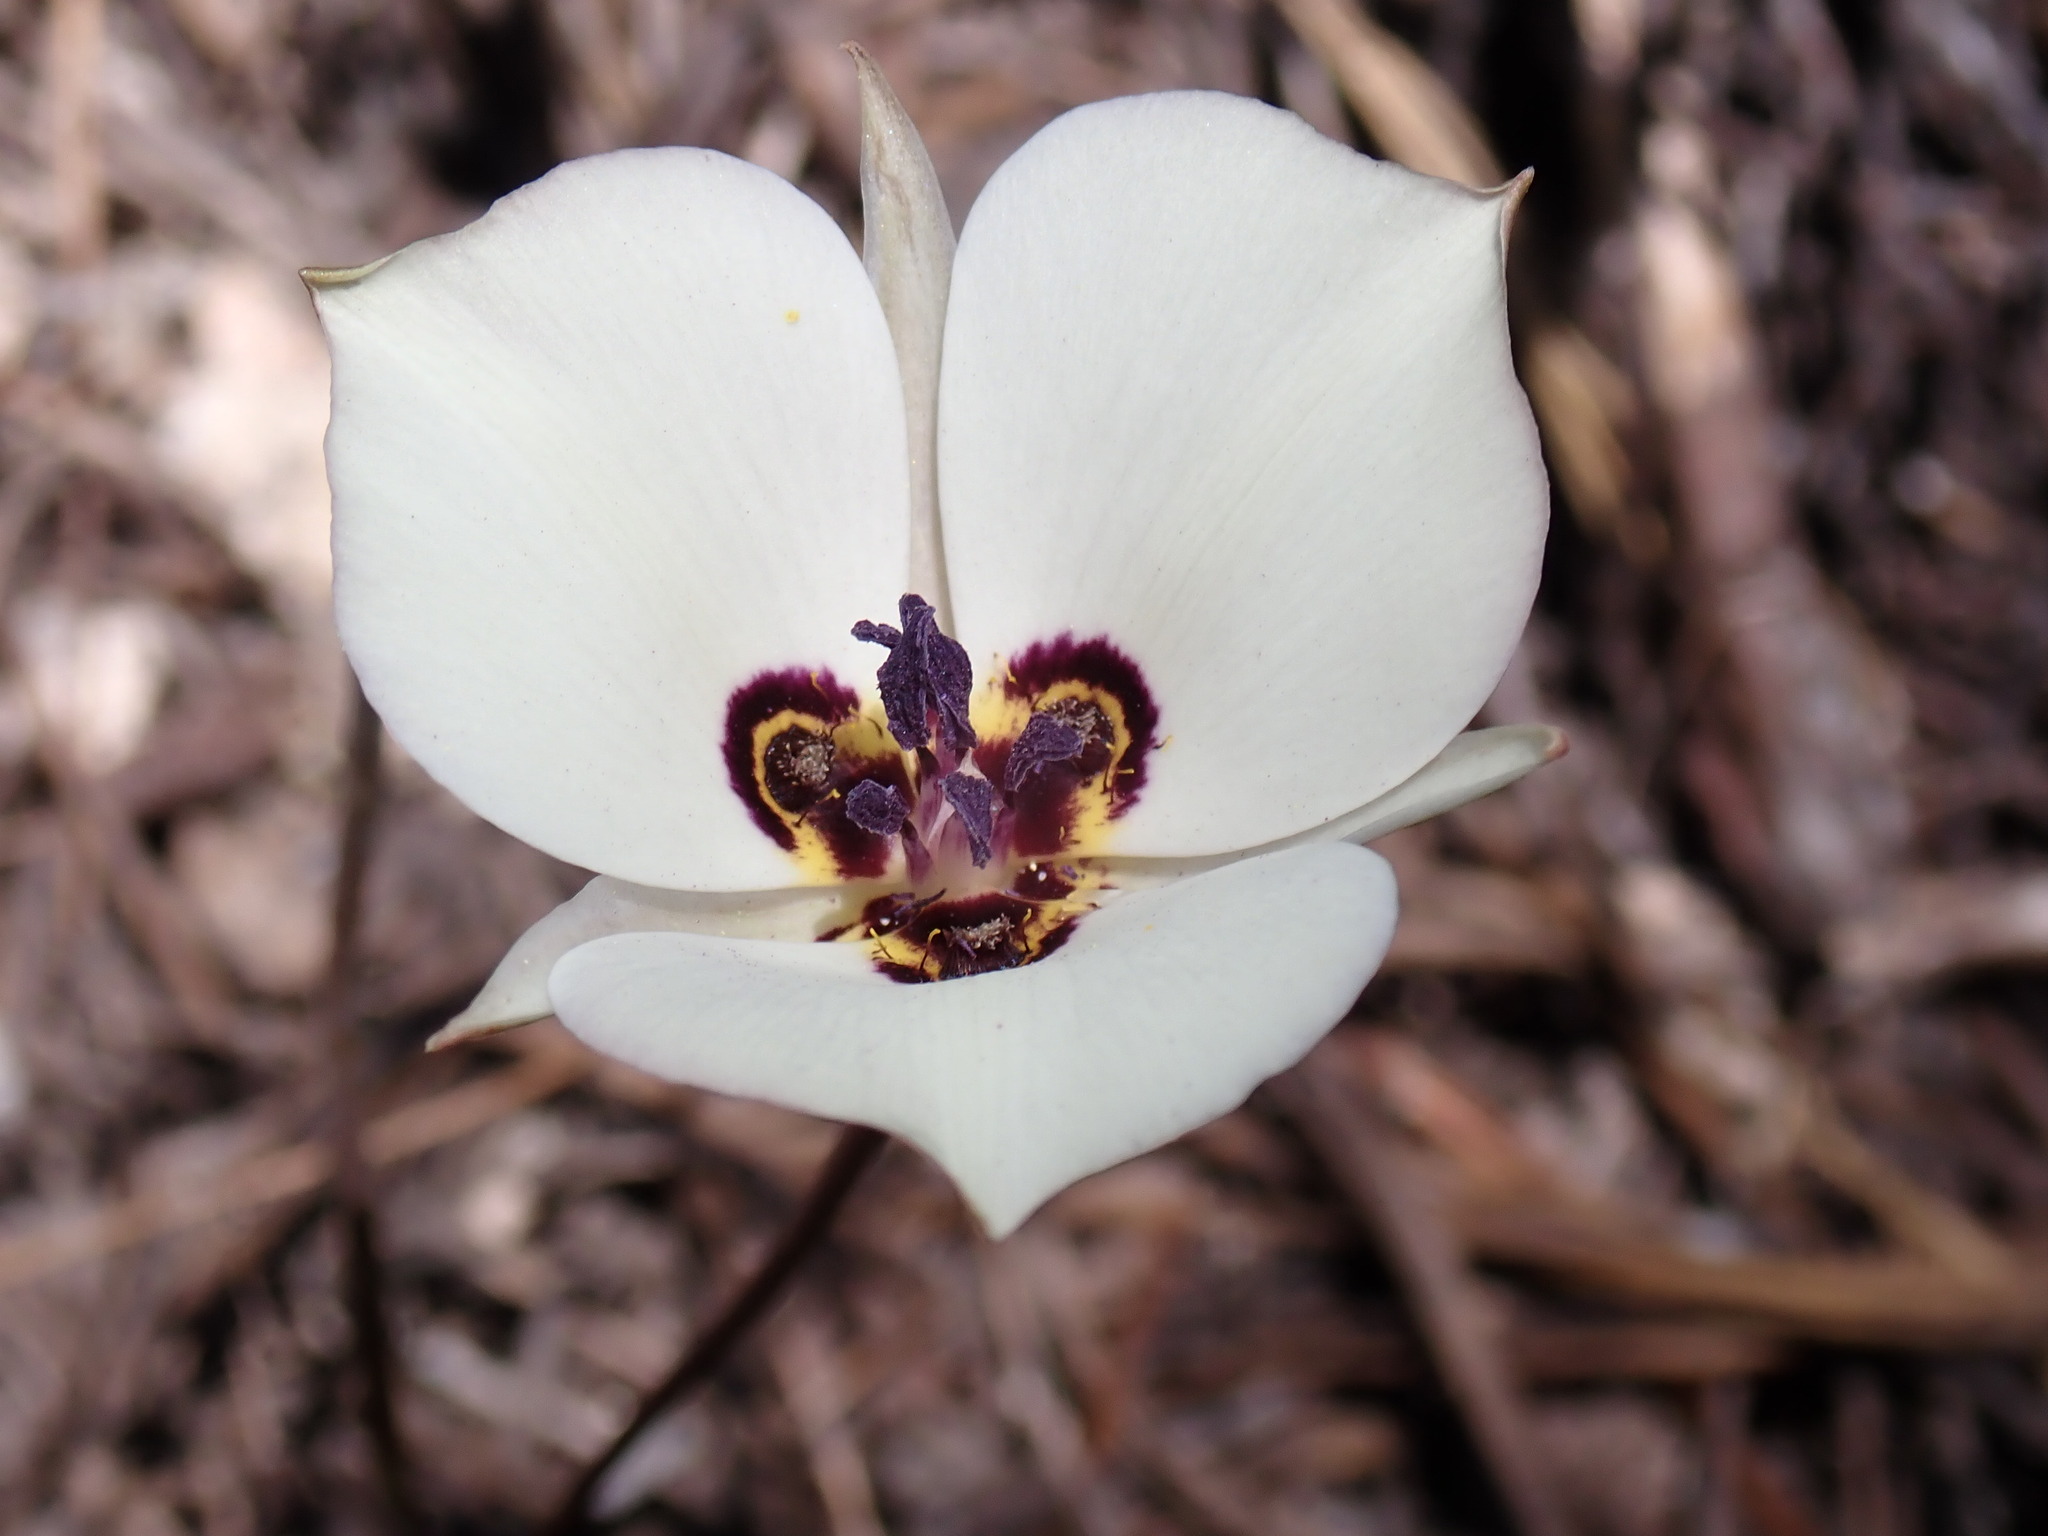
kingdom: Plantae
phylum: Tracheophyta
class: Liliopsida
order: Liliales
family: Liliaceae
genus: Calochortus
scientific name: Calochortus bruneaunis
